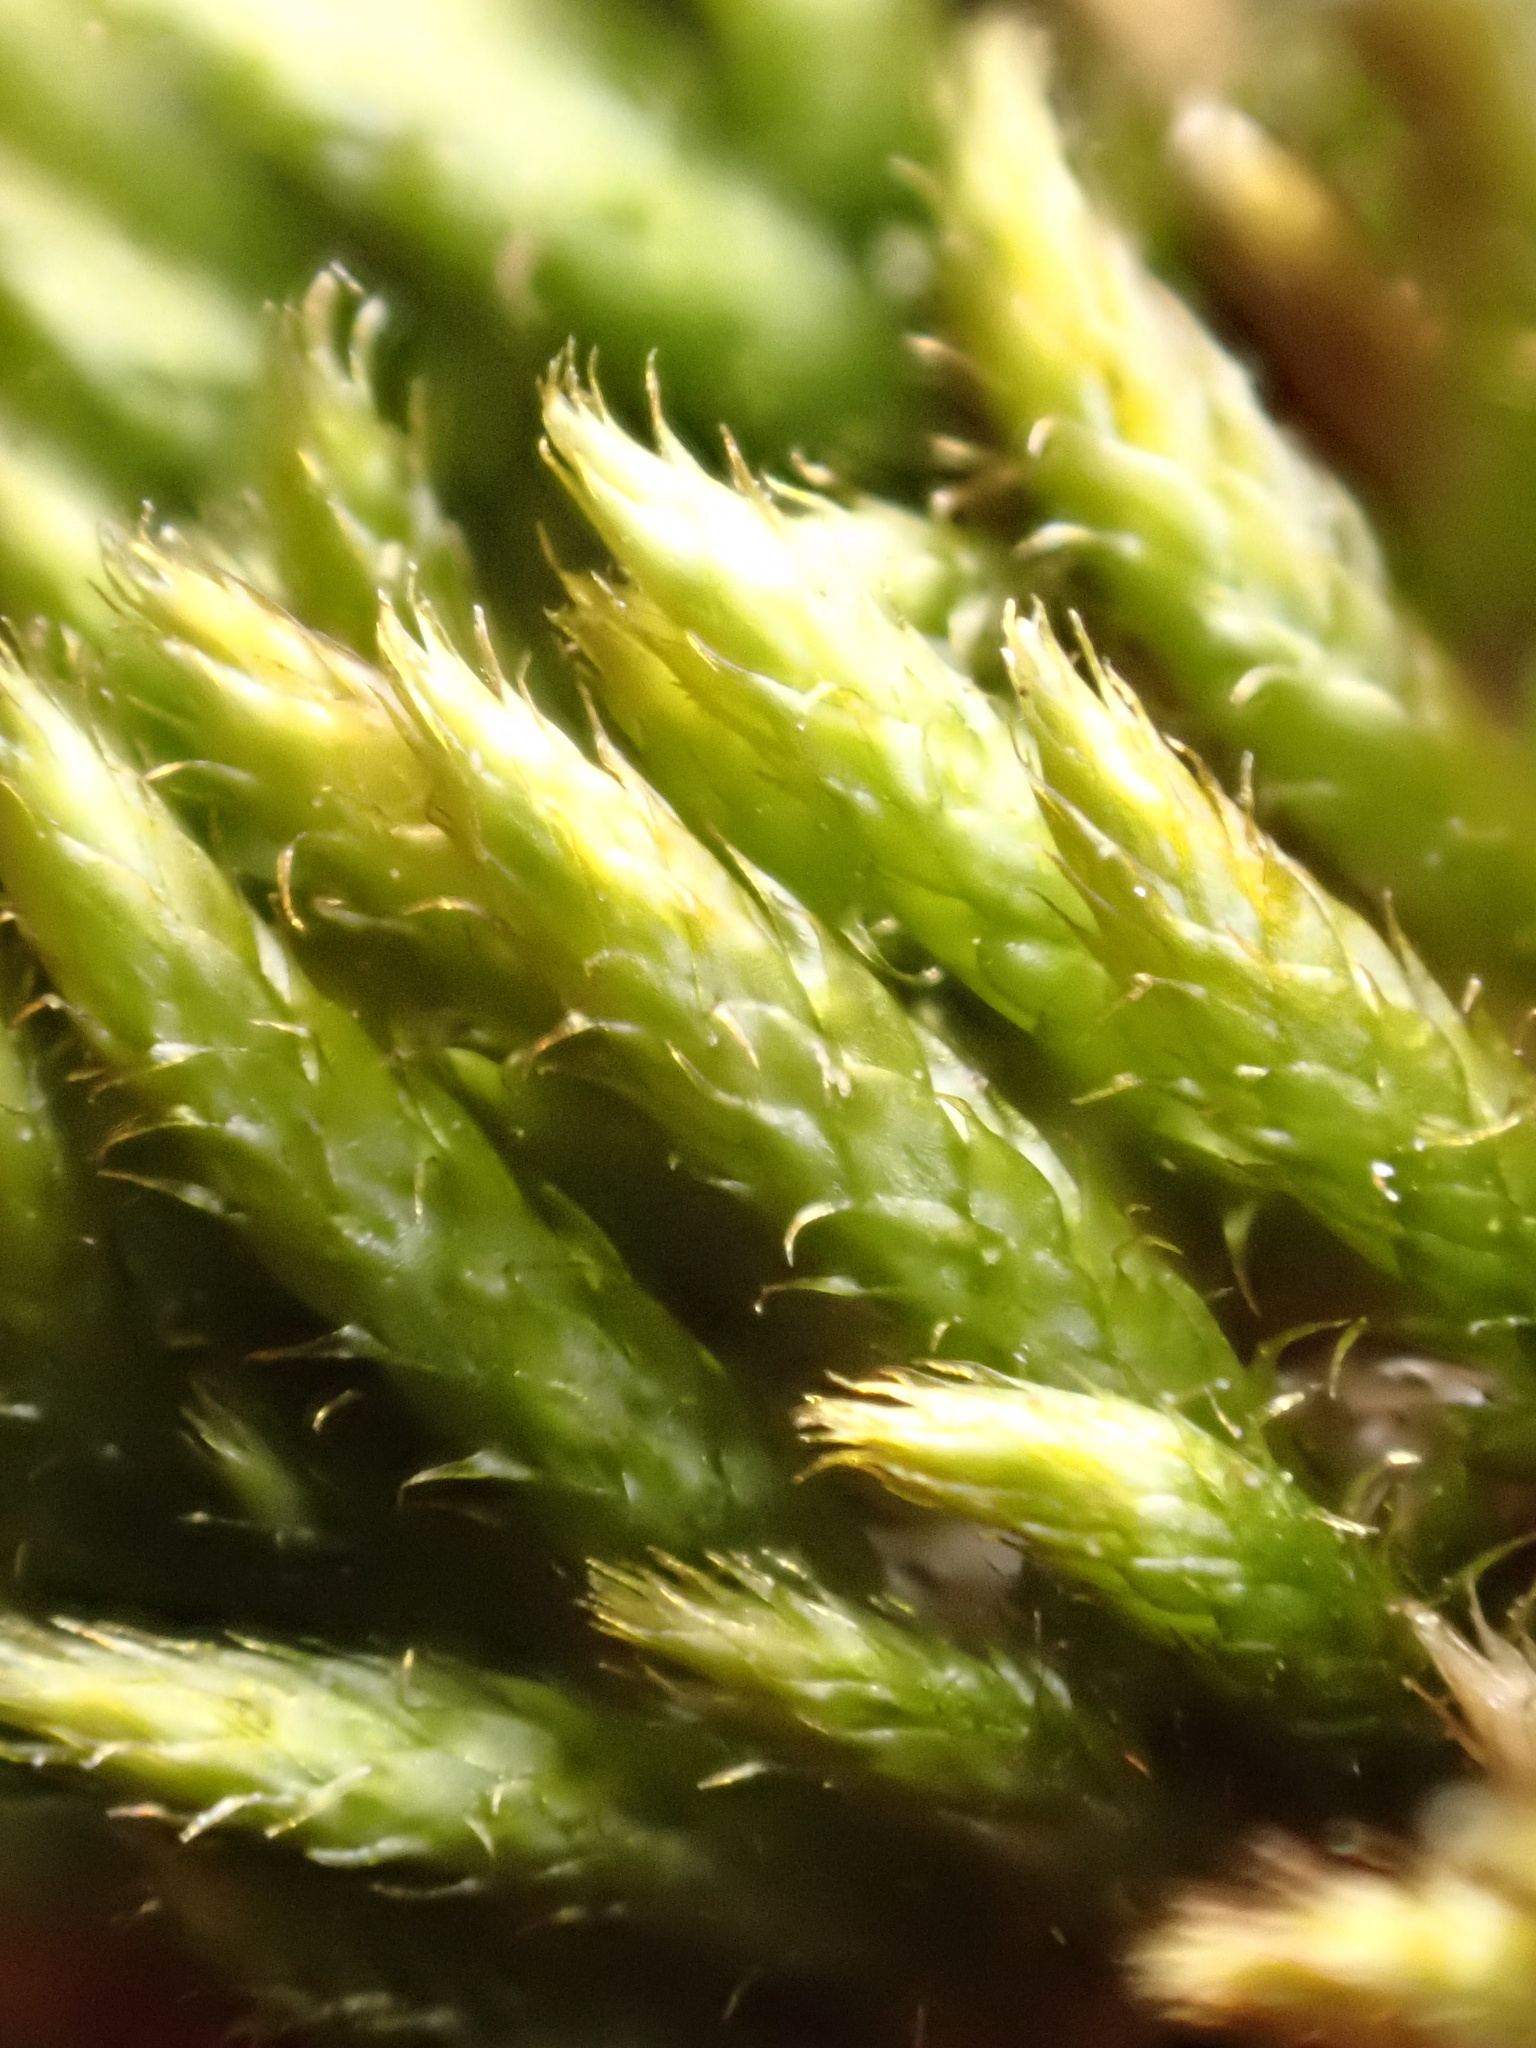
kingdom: Plantae
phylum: Bryophyta
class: Bryopsida
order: Hypnales
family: Hypnaceae
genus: Hypnum
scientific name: Hypnum resupinatum
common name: Supine plait-moss
